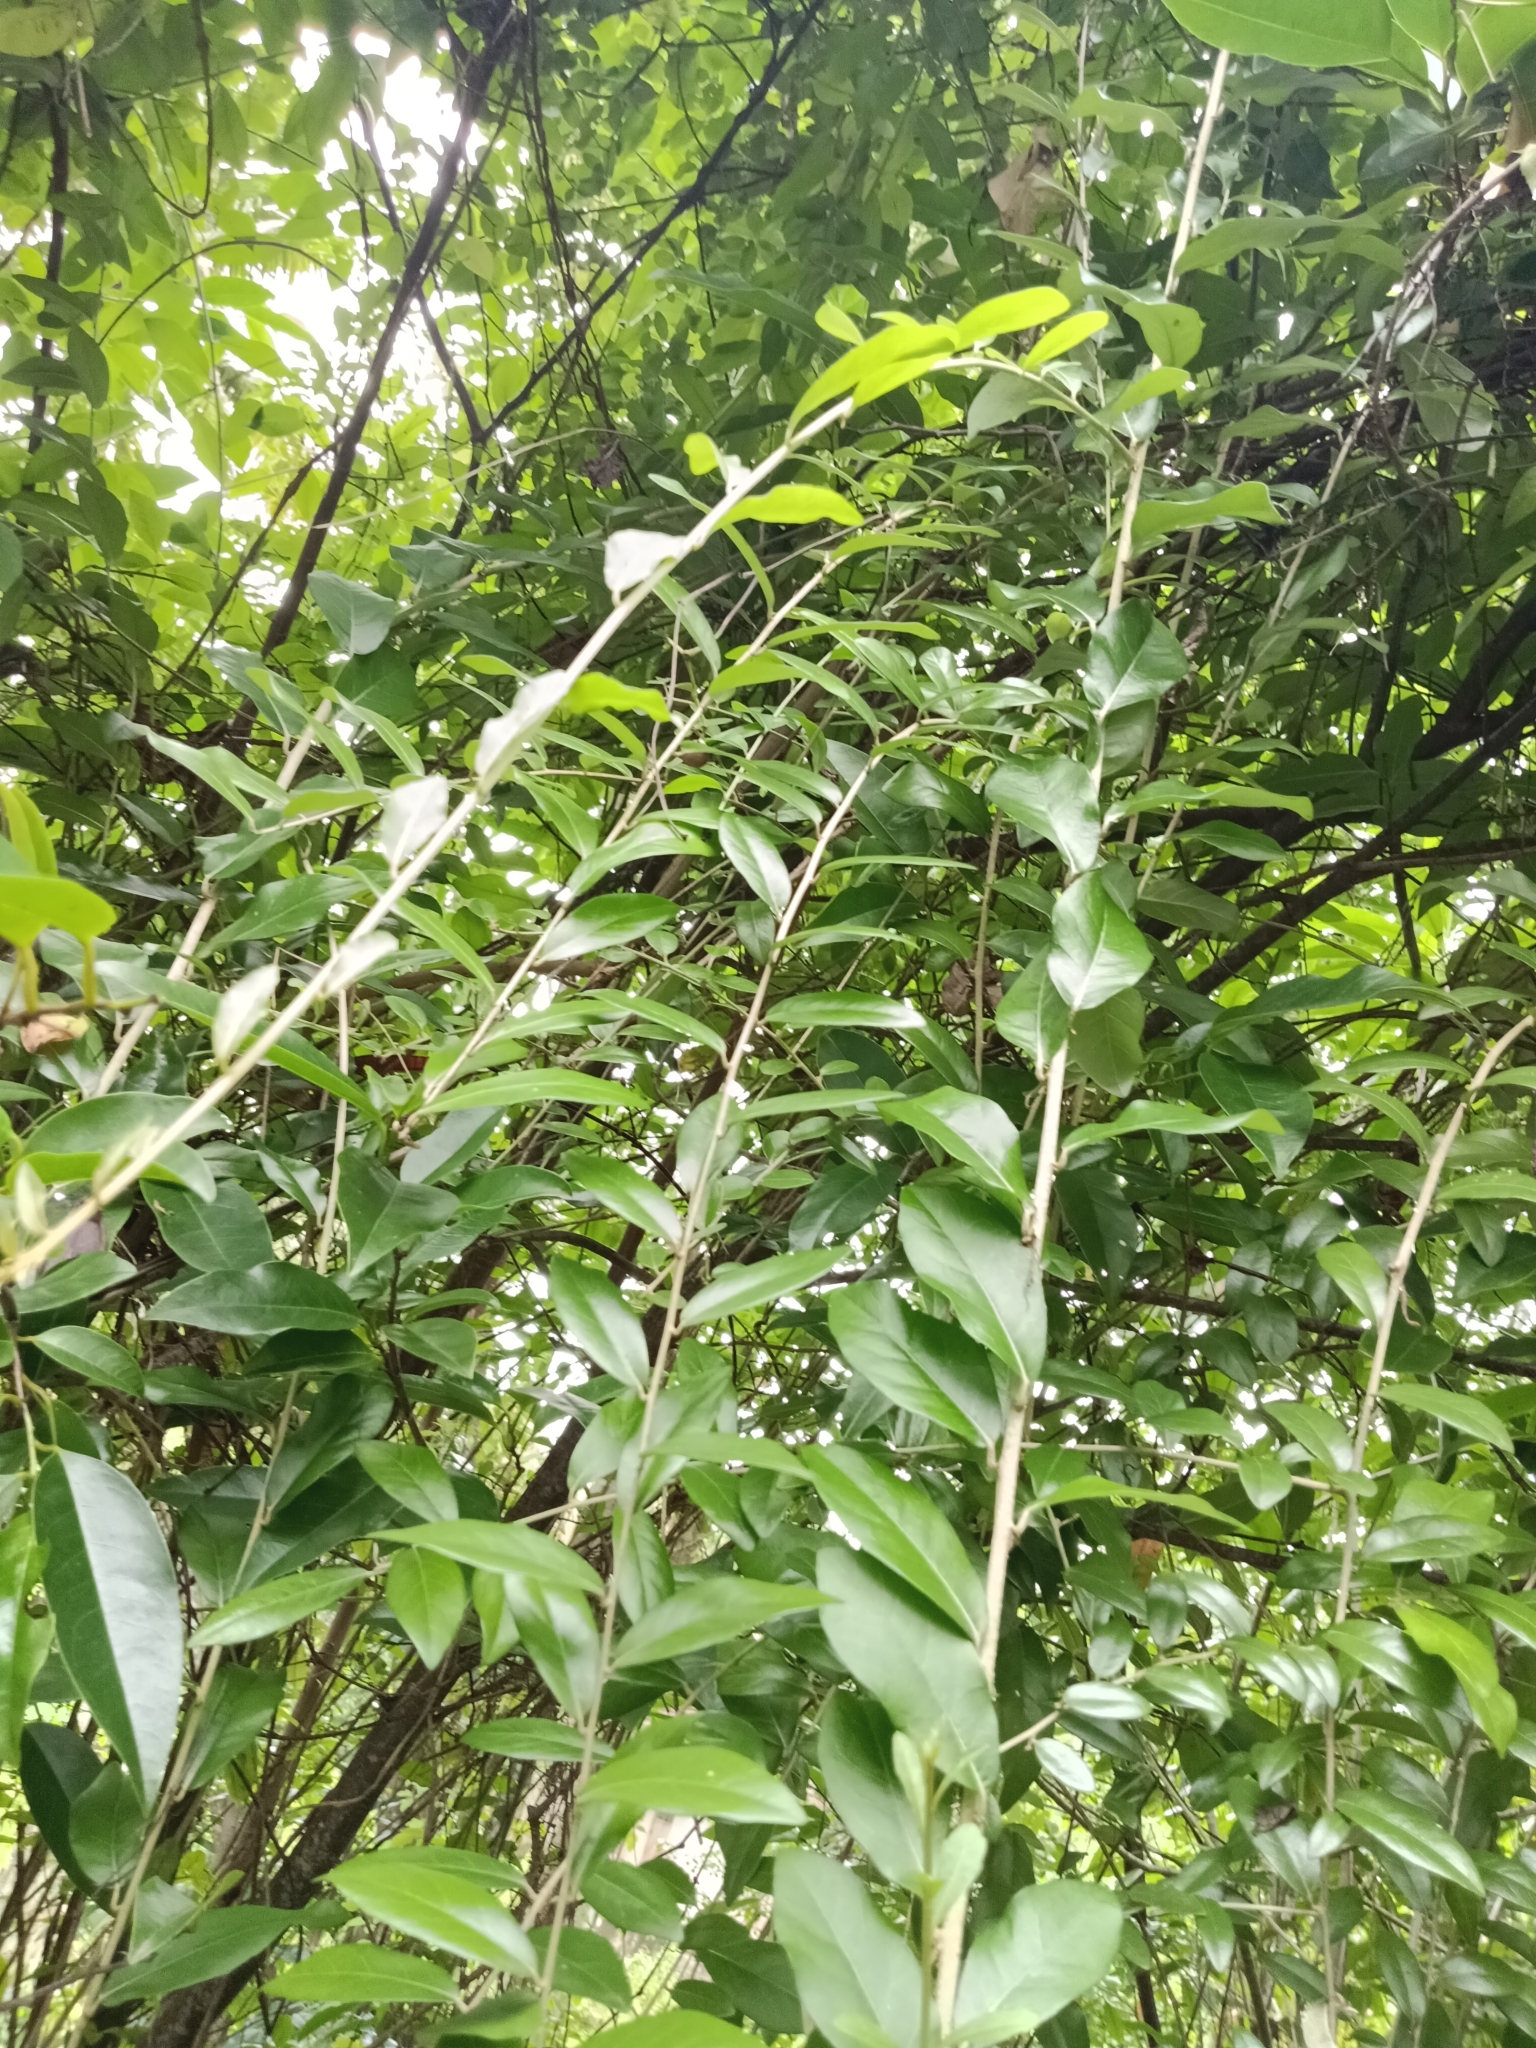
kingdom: Plantae
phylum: Tracheophyta
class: Magnoliopsida
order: Asterales
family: Asteraceae
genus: Tarlmounia
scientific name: Tarlmounia elliptica
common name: Kheua sa lot
